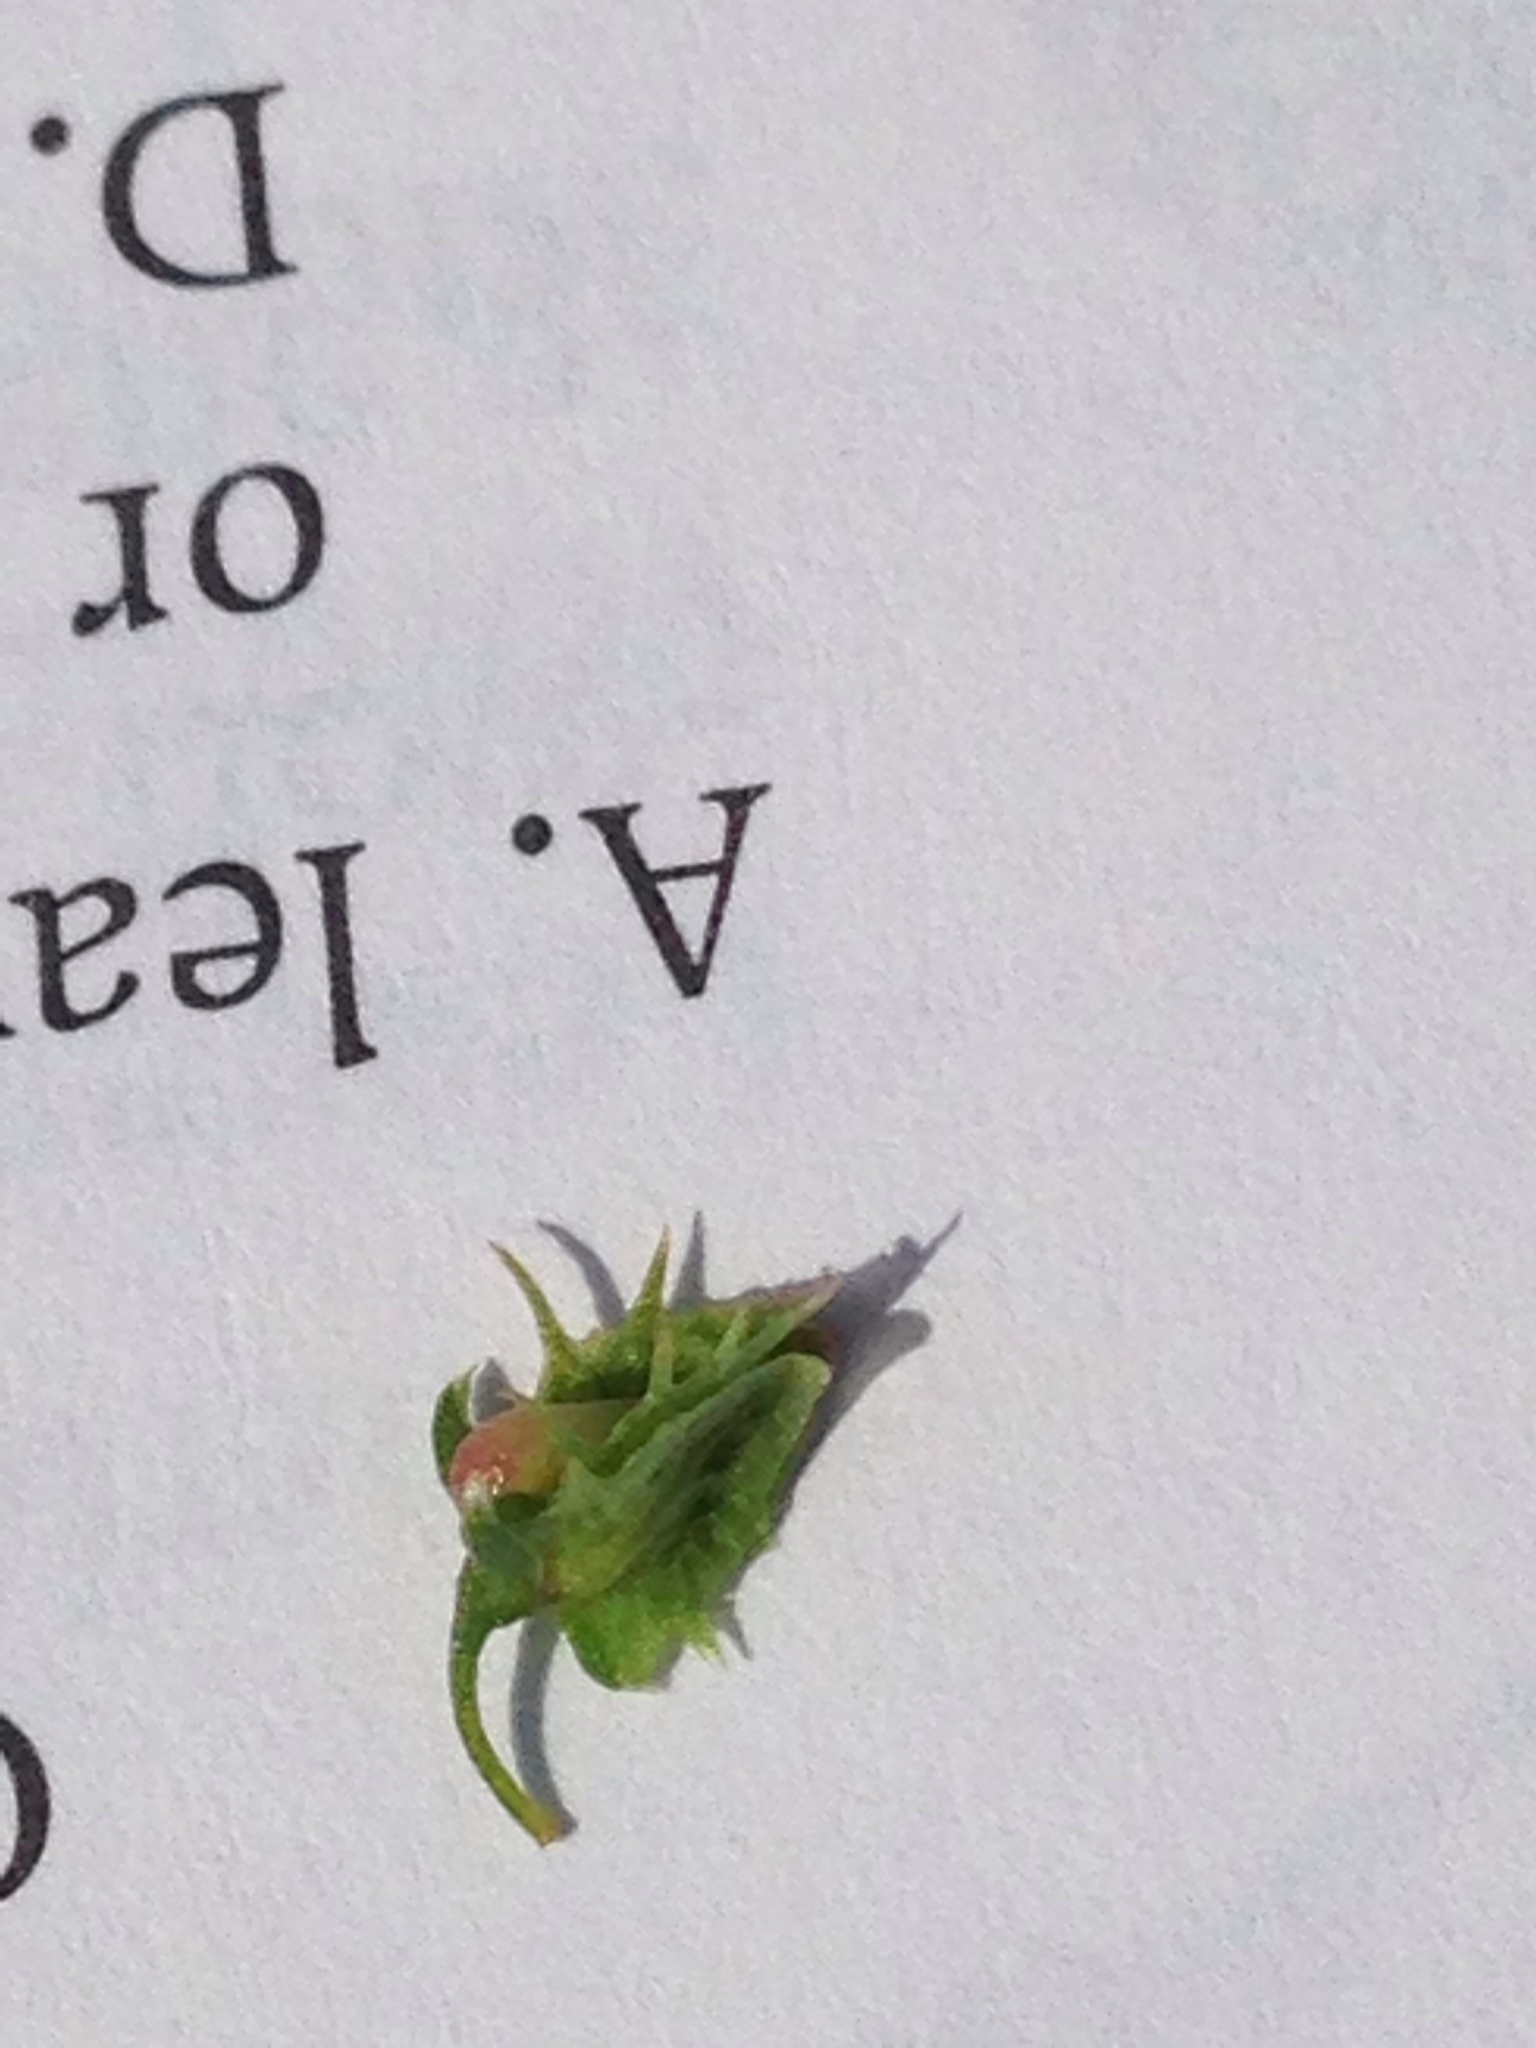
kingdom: Plantae
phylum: Tracheophyta
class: Magnoliopsida
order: Caryophyllales
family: Polygonaceae
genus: Rumex
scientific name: Rumex obtusifolius
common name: Bitter dock
